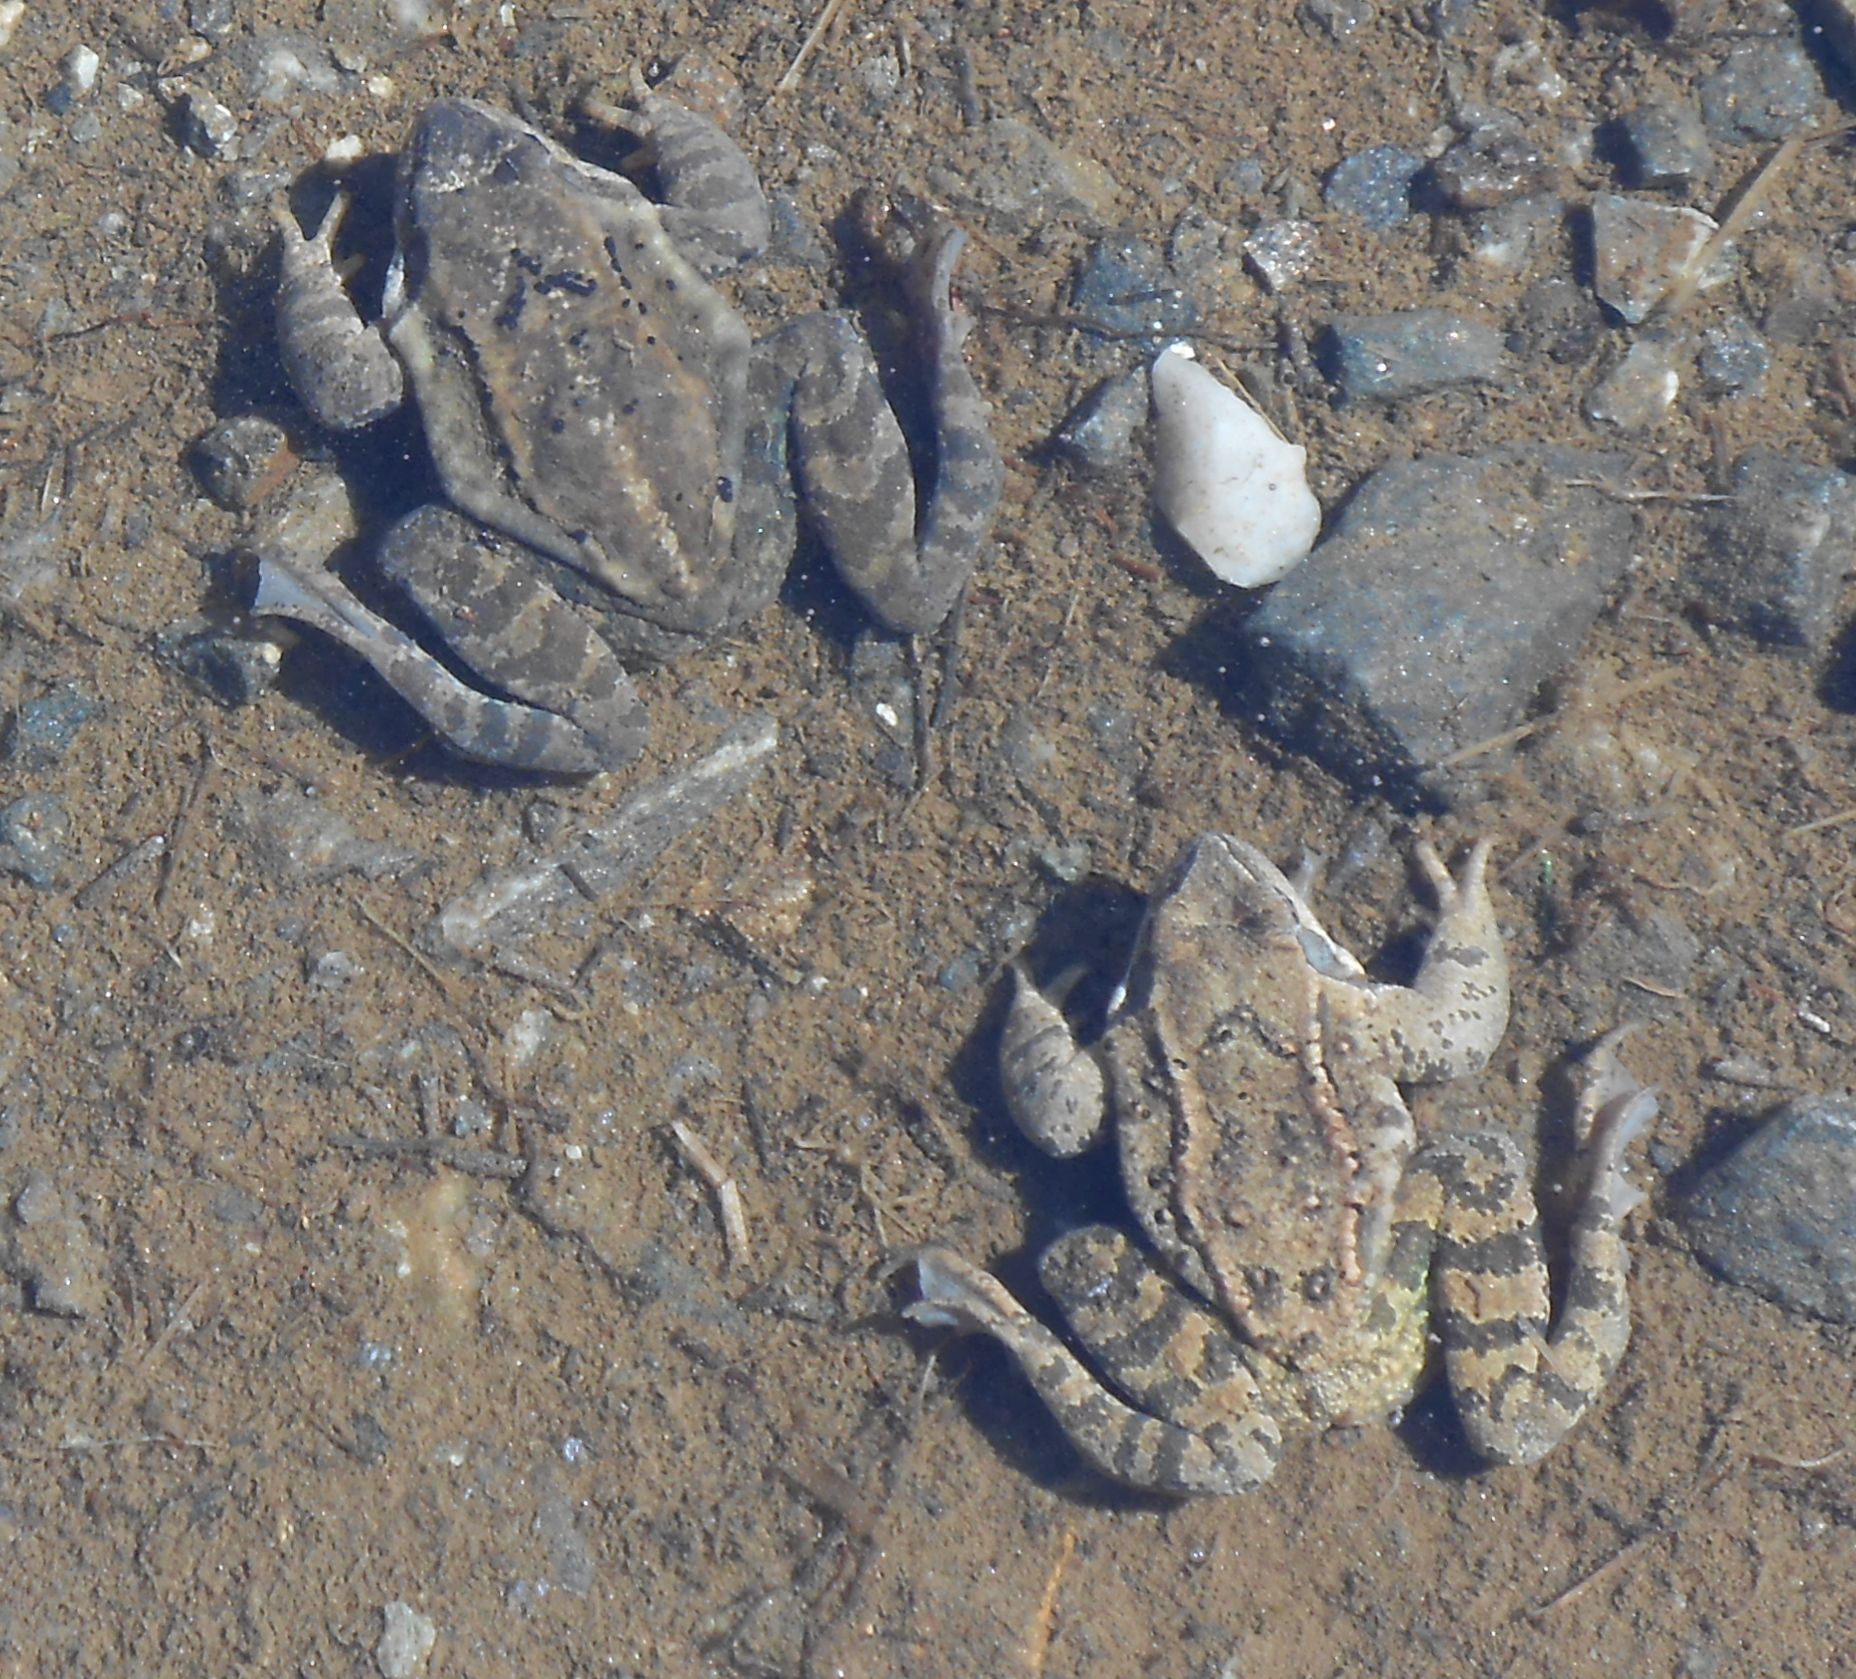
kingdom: Animalia
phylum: Chordata
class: Amphibia
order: Anura
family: Ranidae
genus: Rana
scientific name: Rana temporaria
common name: Common frog
